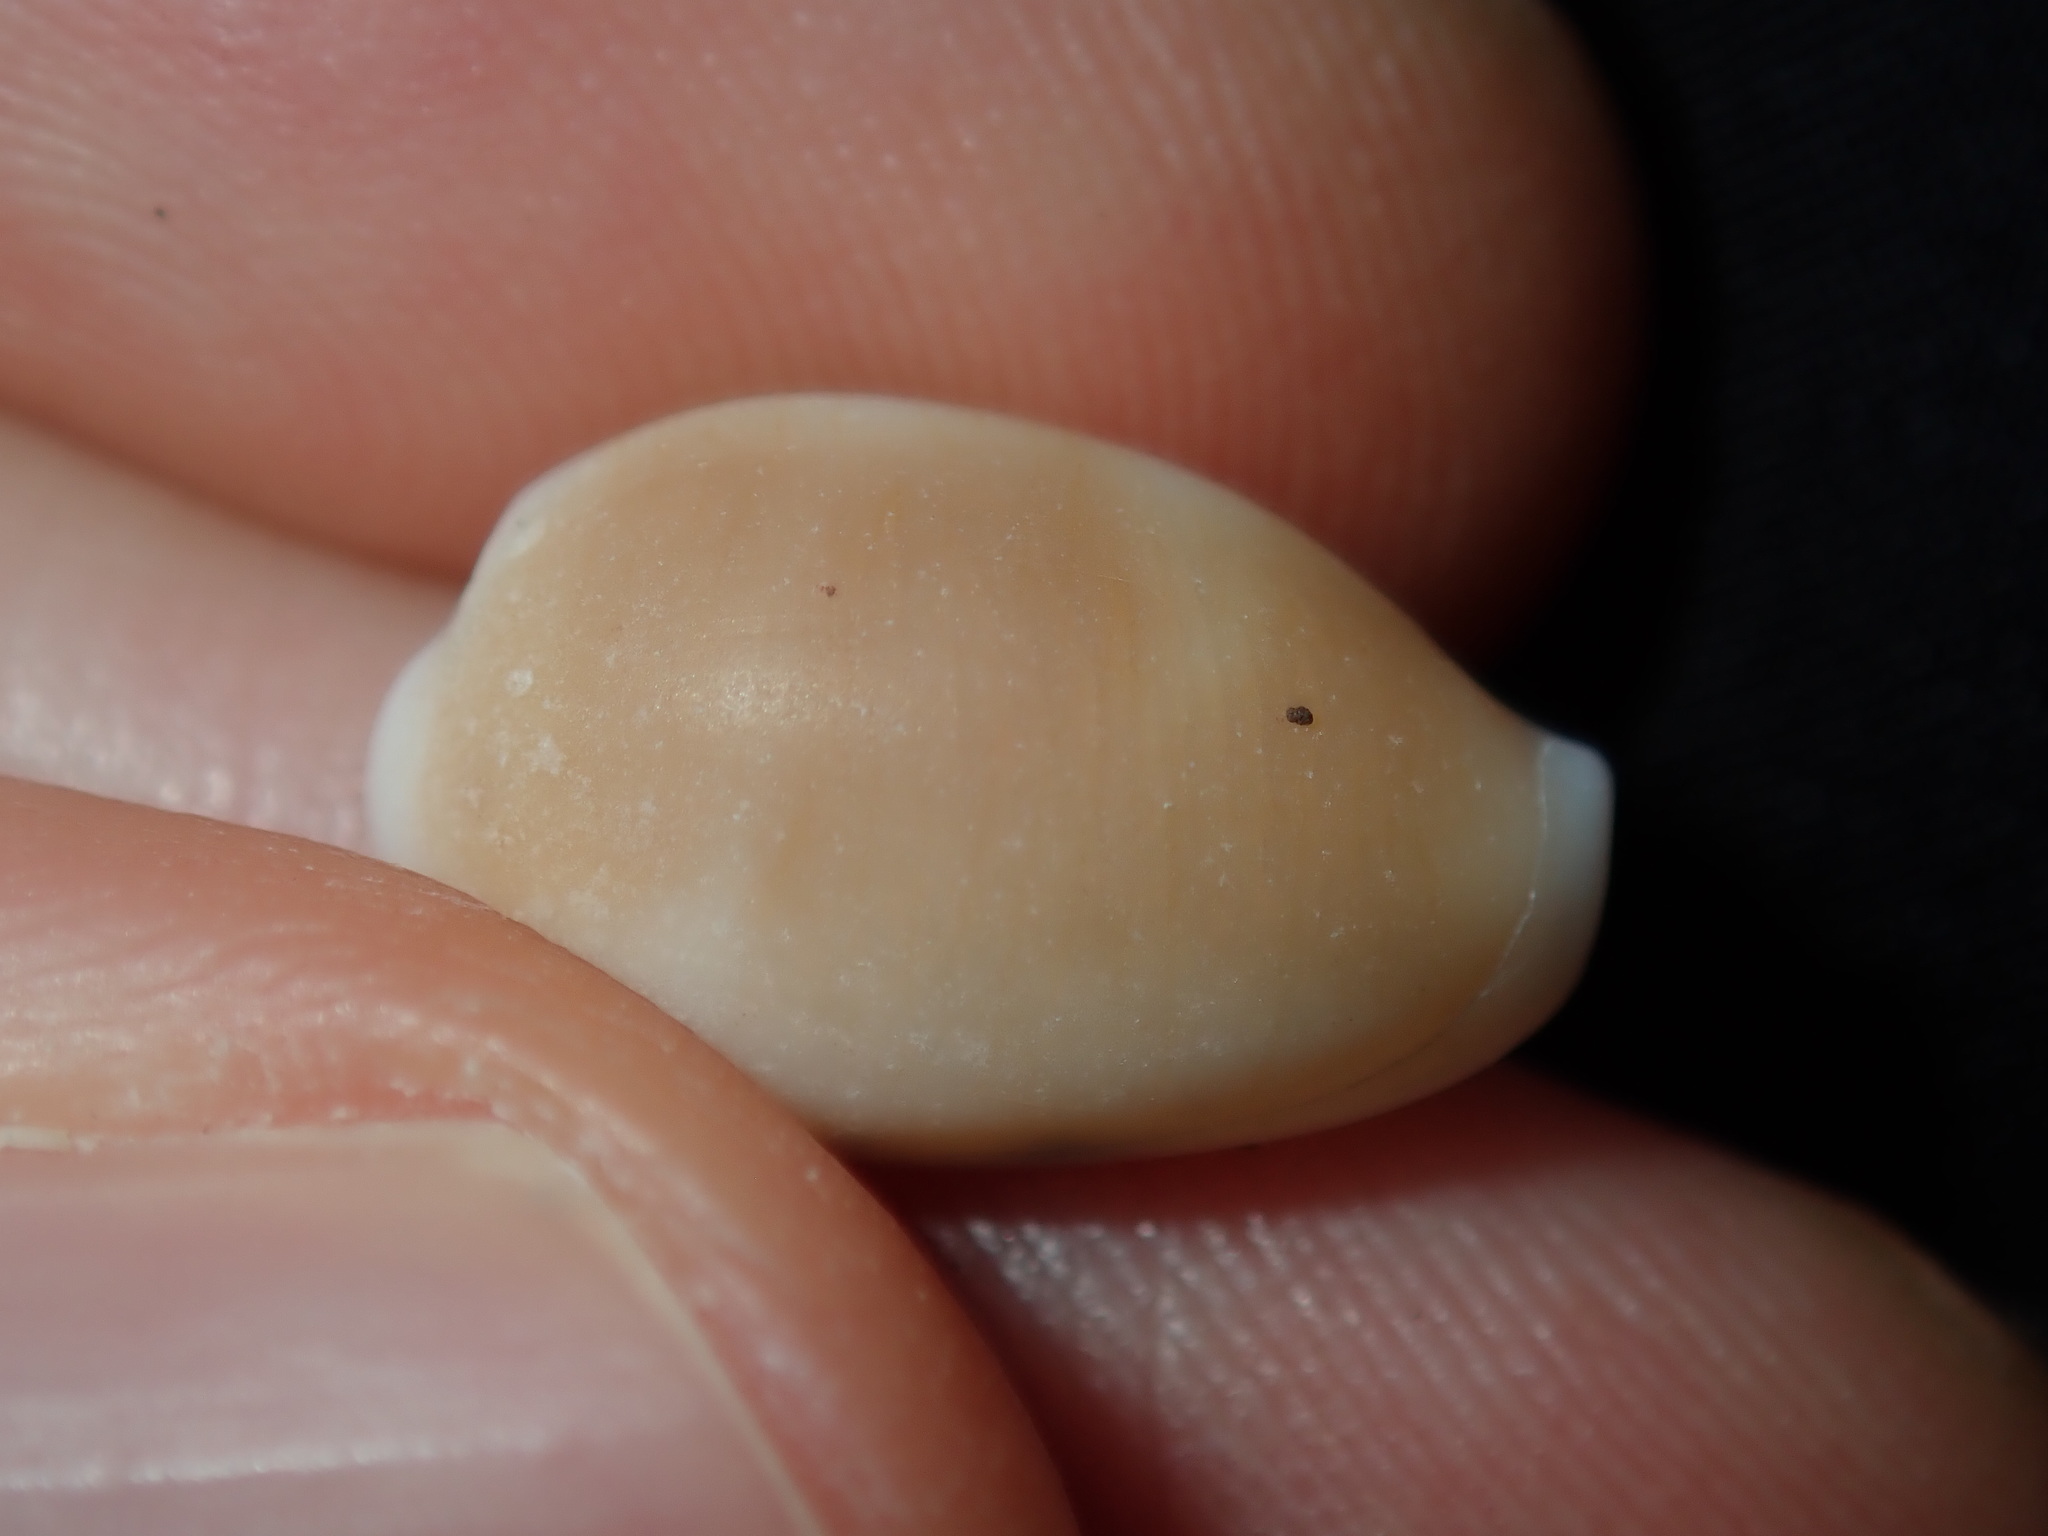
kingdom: Animalia
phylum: Mollusca
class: Gastropoda
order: Littorinimorpha
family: Cypraeidae
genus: Palmadusta
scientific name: Palmadusta clandestina
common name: Cowrie
